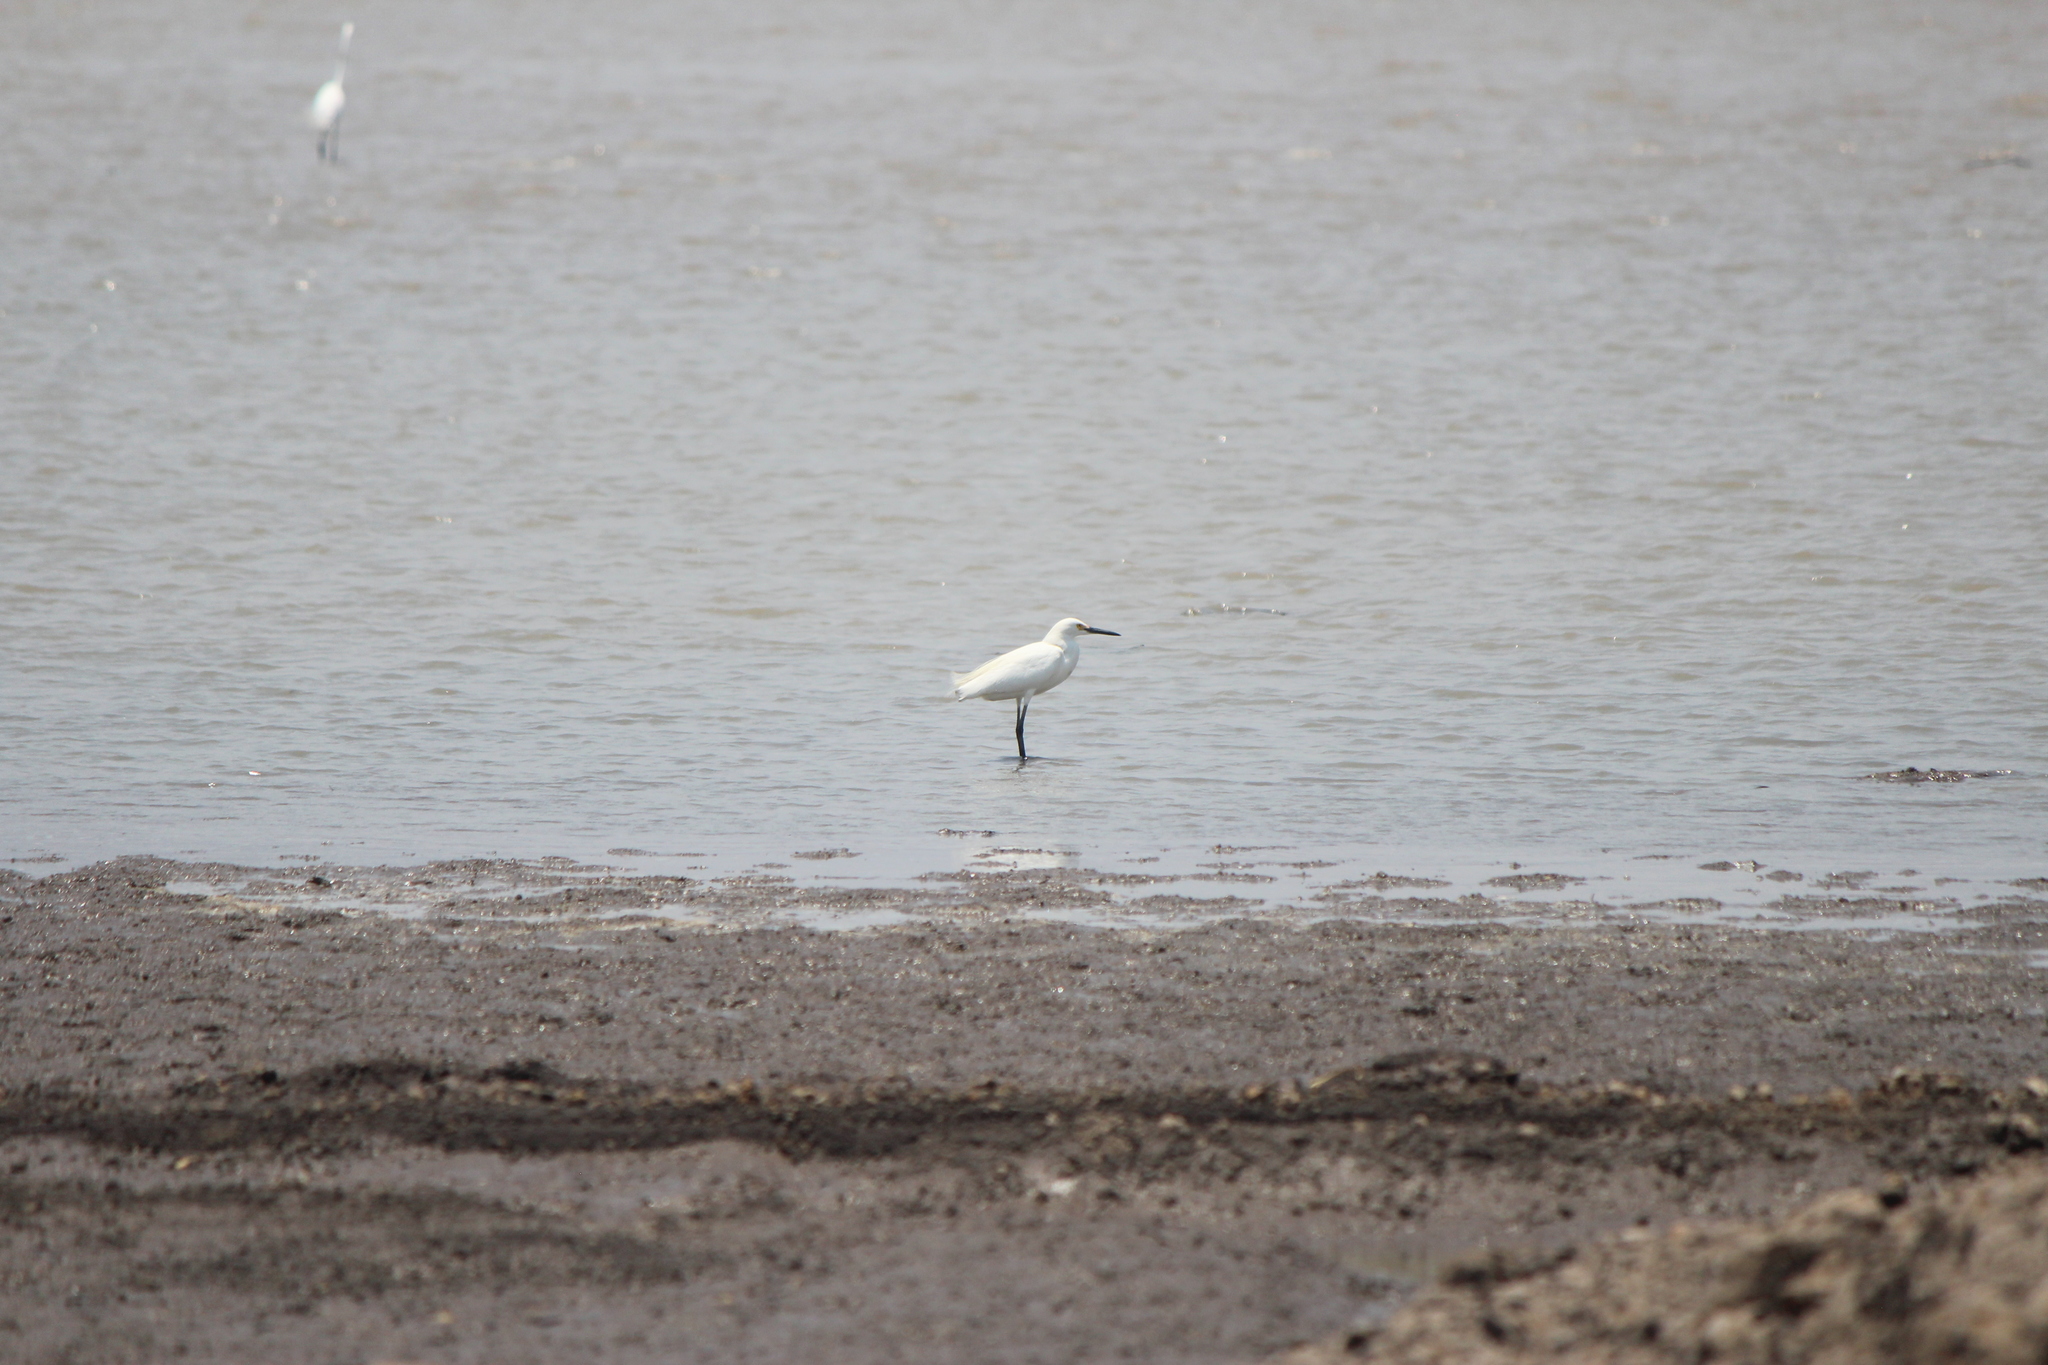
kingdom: Animalia
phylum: Chordata
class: Aves
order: Pelecaniformes
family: Ardeidae
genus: Egretta
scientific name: Egretta thula
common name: Snowy egret
